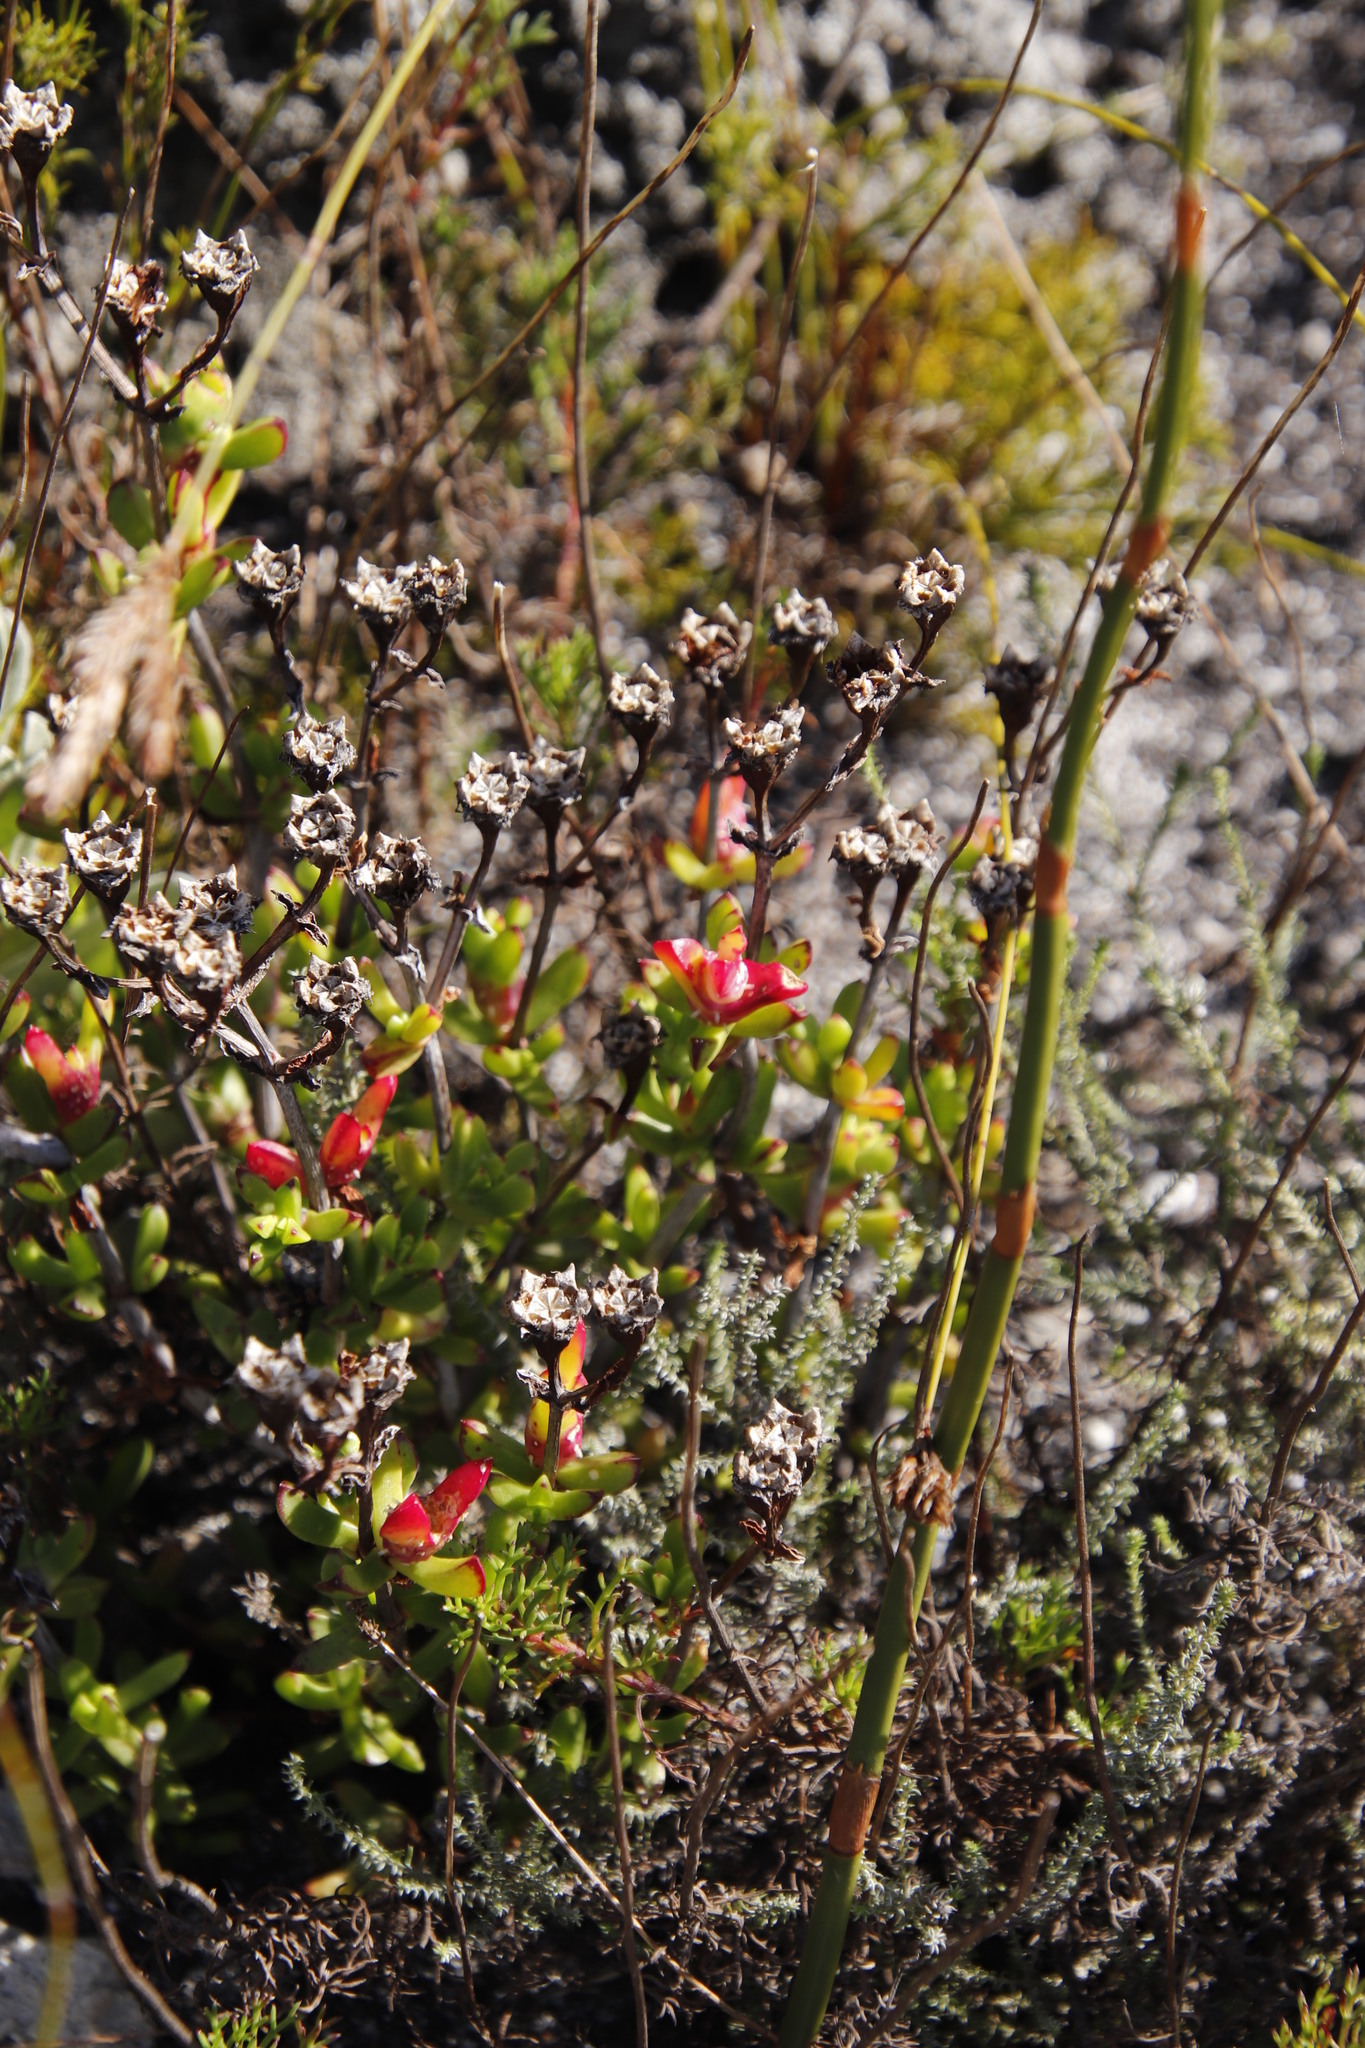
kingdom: Plantae
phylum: Tracheophyta
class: Magnoliopsida
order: Caryophyllales
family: Aizoaceae
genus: Erepsia
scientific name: Erepsia inclaudens
